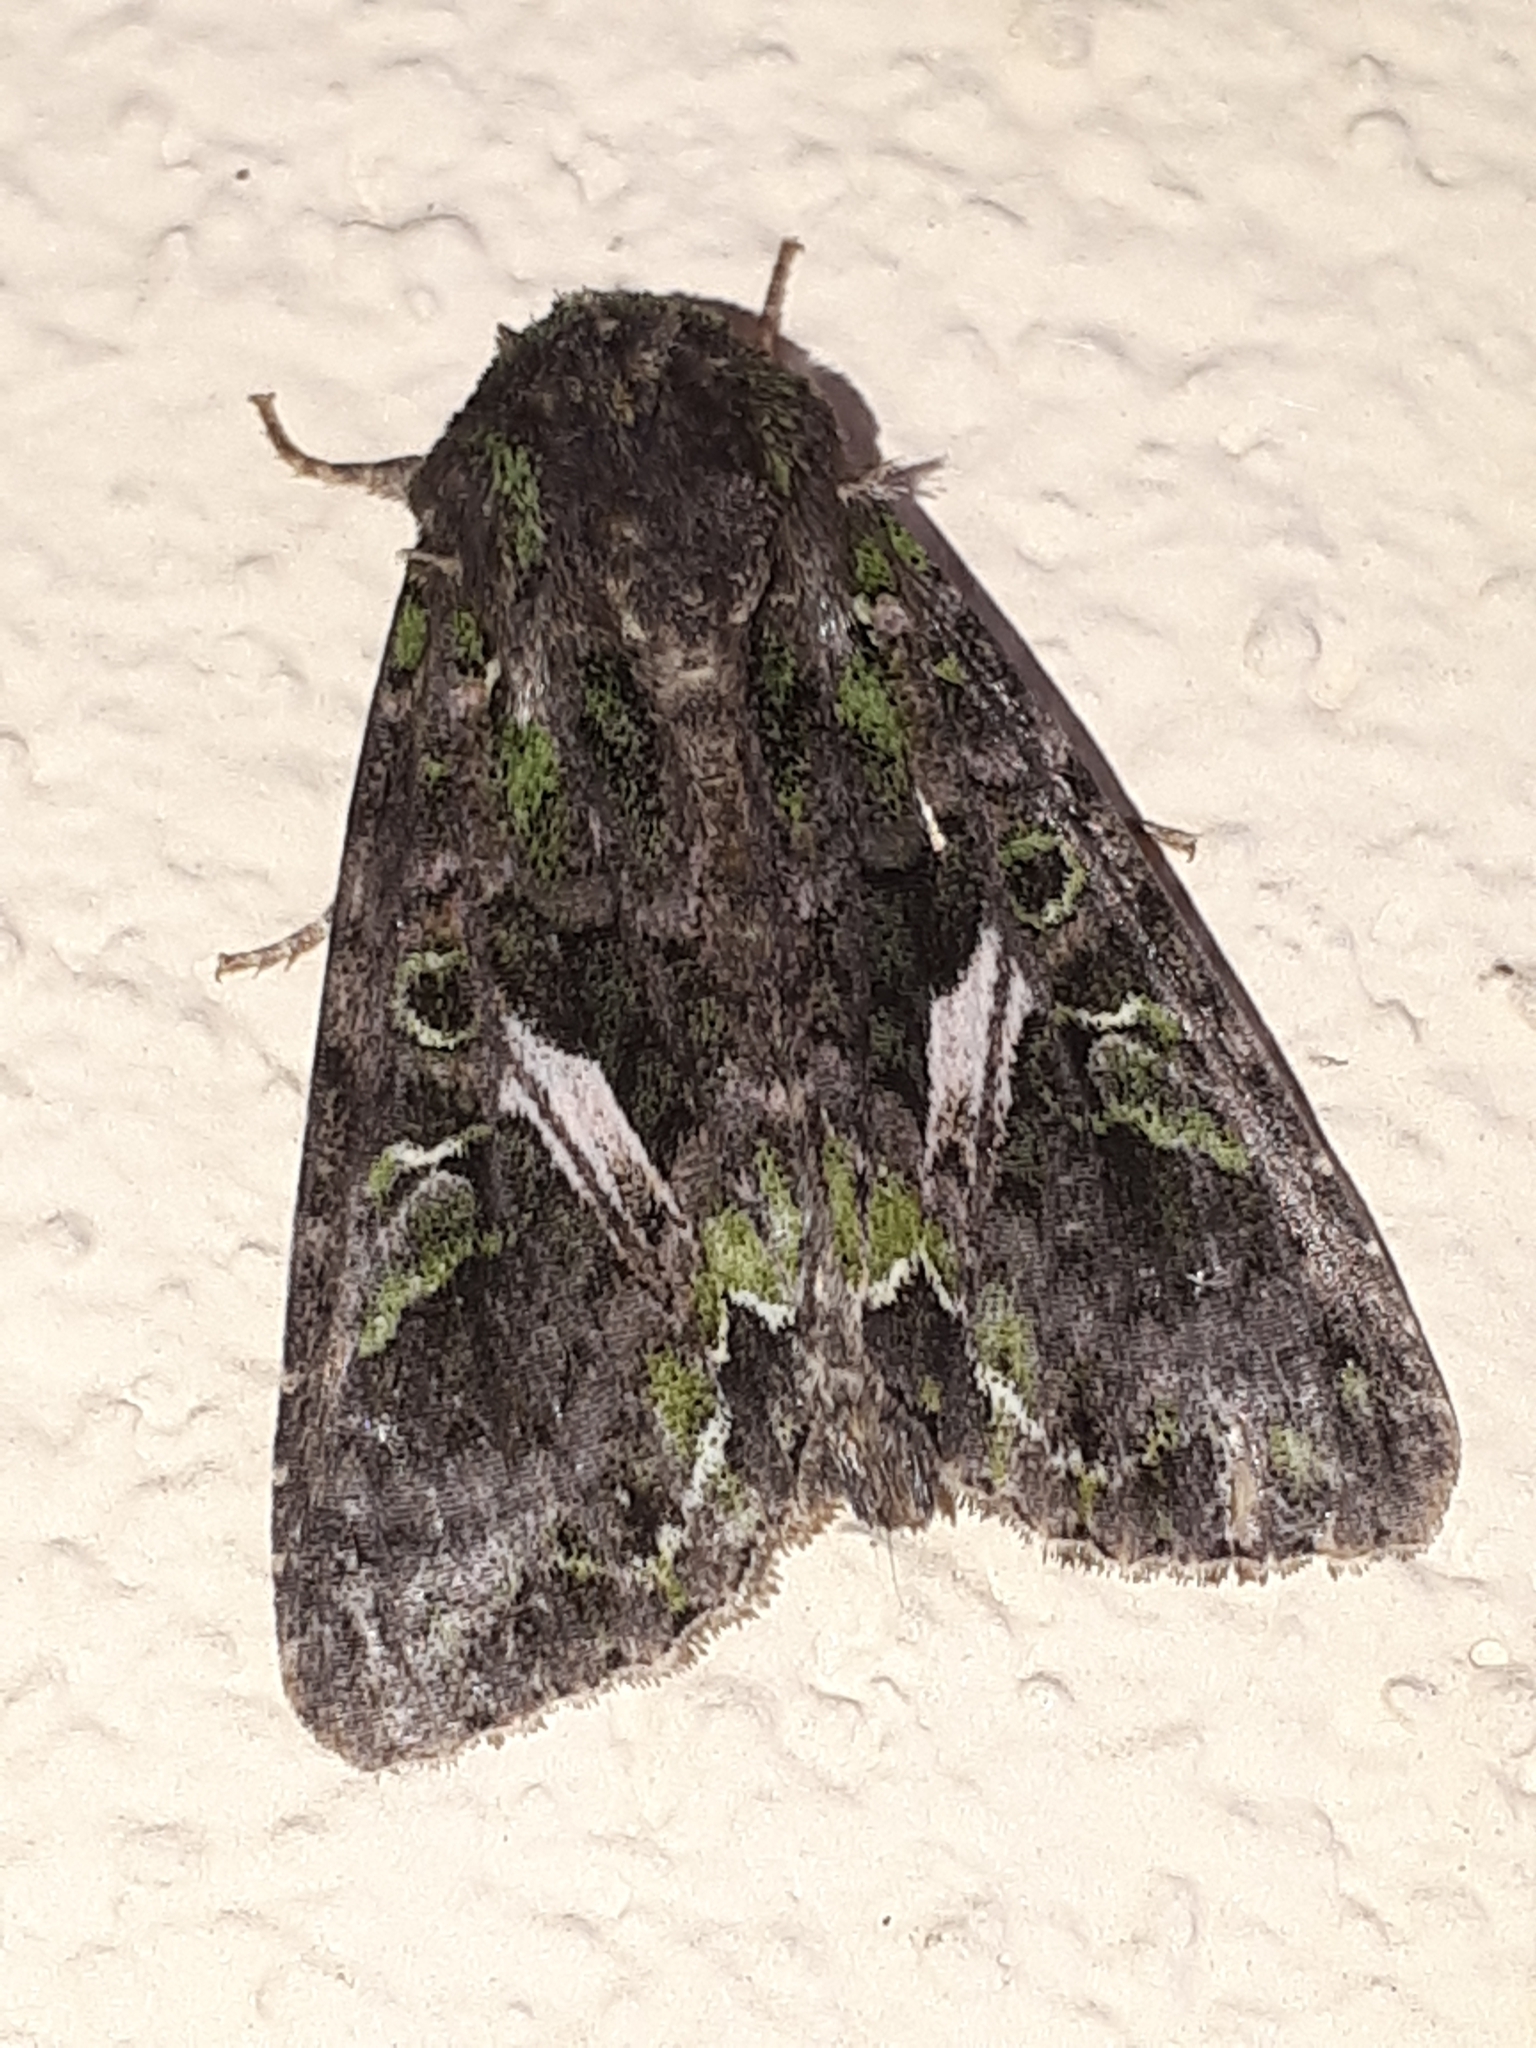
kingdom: Animalia
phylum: Arthropoda
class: Insecta
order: Lepidoptera
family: Noctuidae
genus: Trachea
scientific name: Trachea atriplicis
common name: Orache moth
